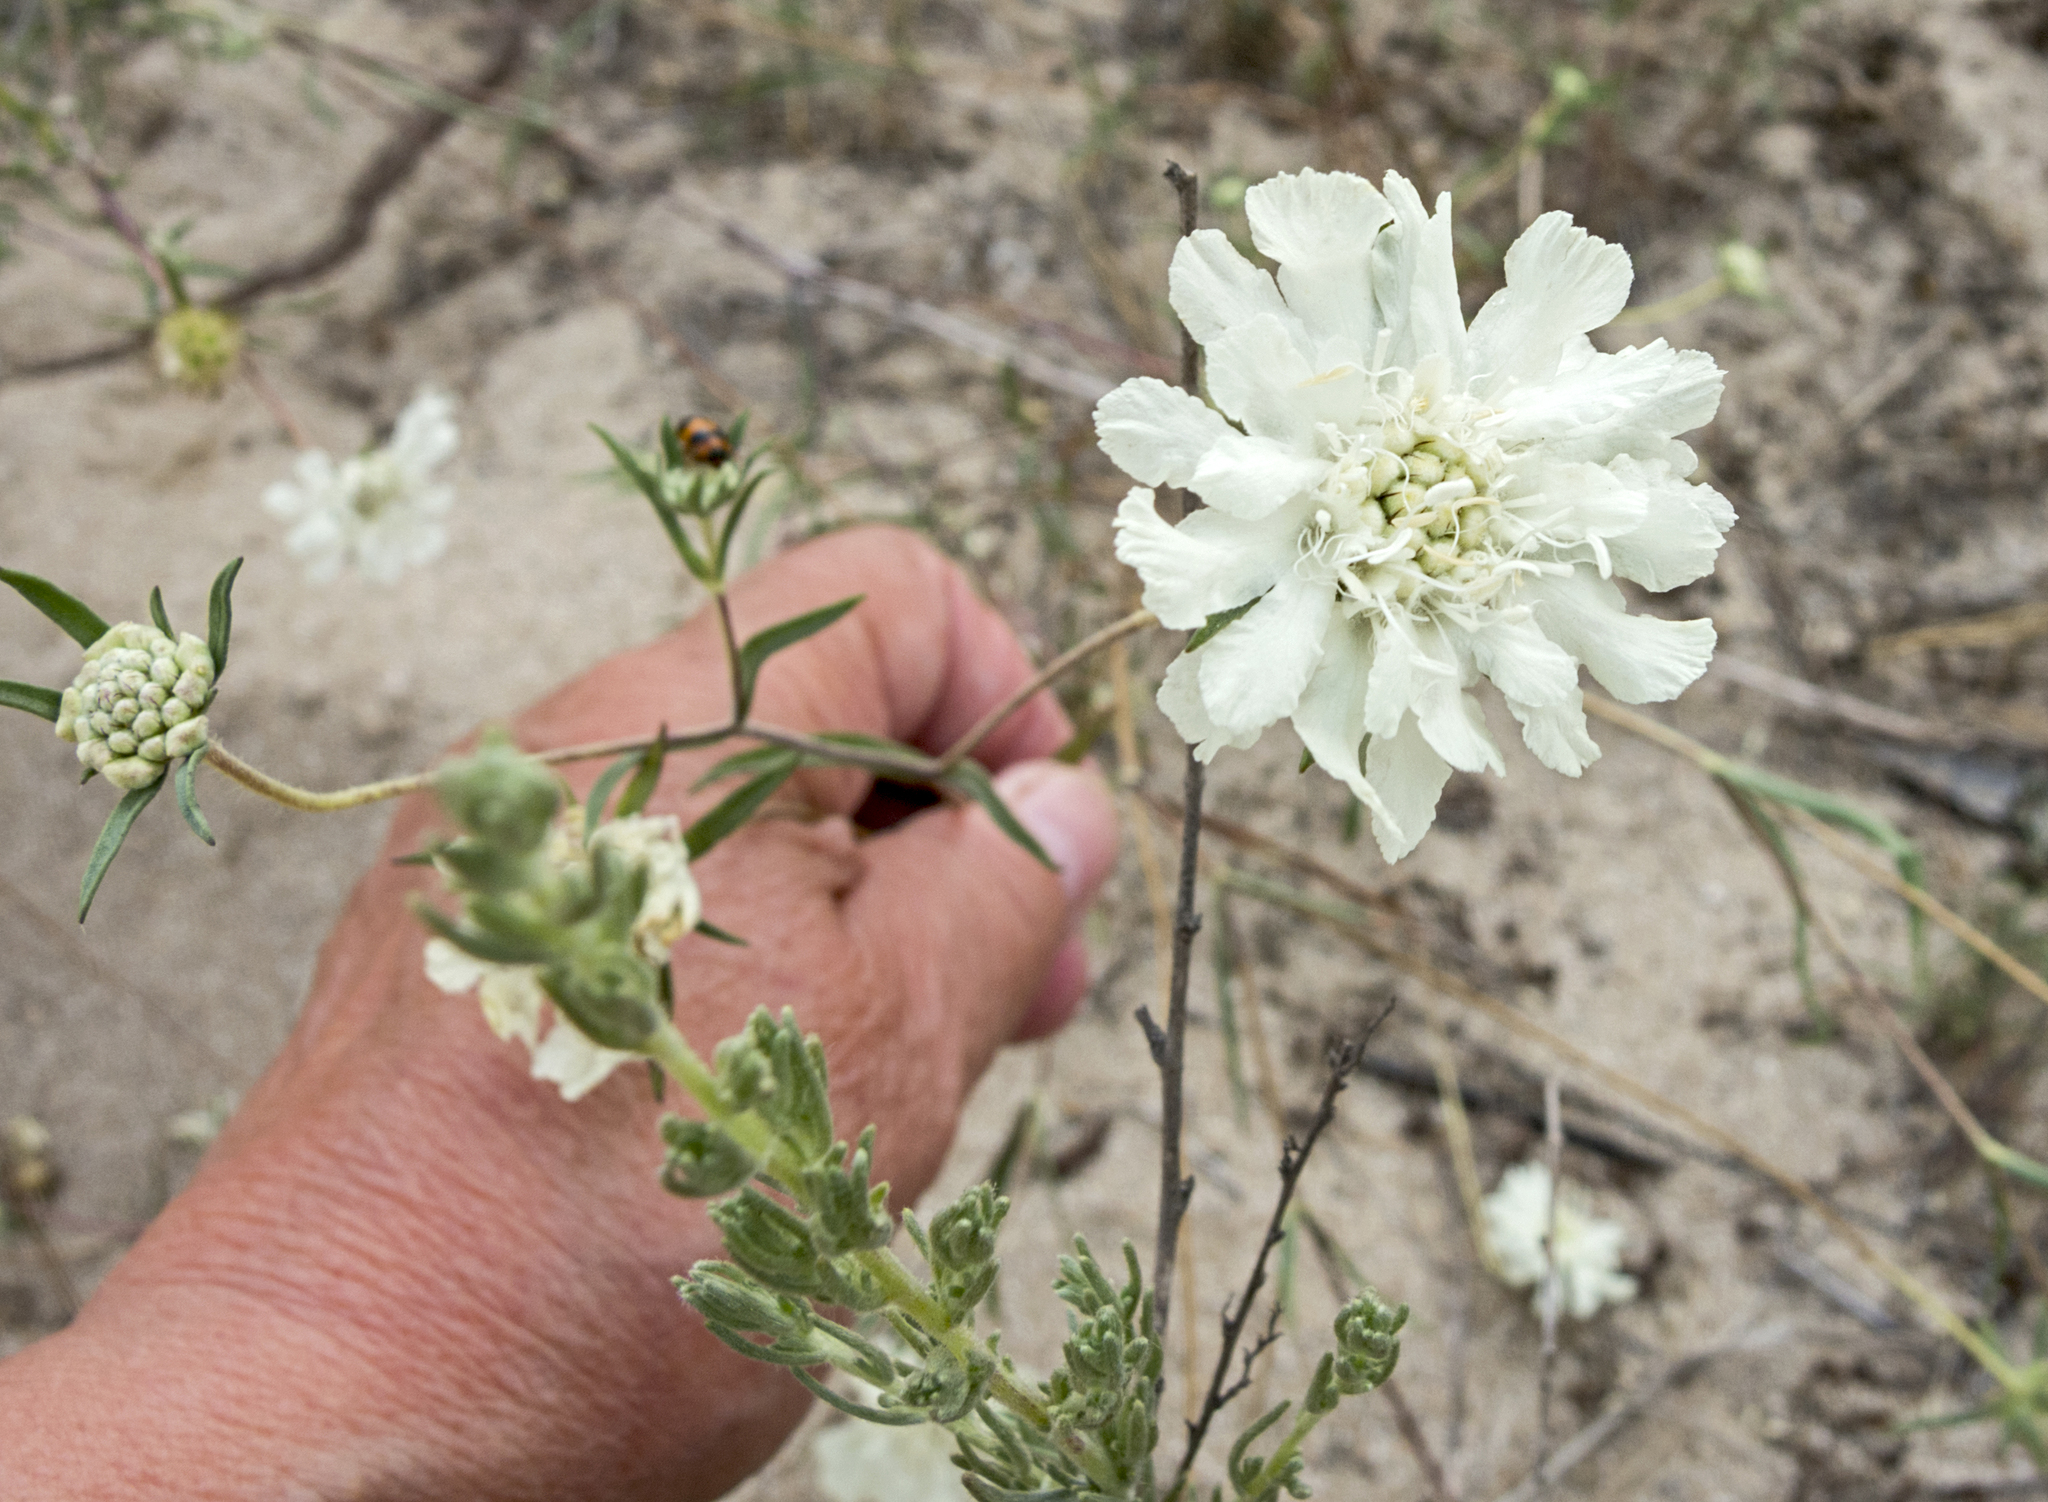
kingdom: Plantae
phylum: Tracheophyta
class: Magnoliopsida
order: Dipsacales
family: Caprifoliaceae
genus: Lomelosia
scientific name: Lomelosia argentea
